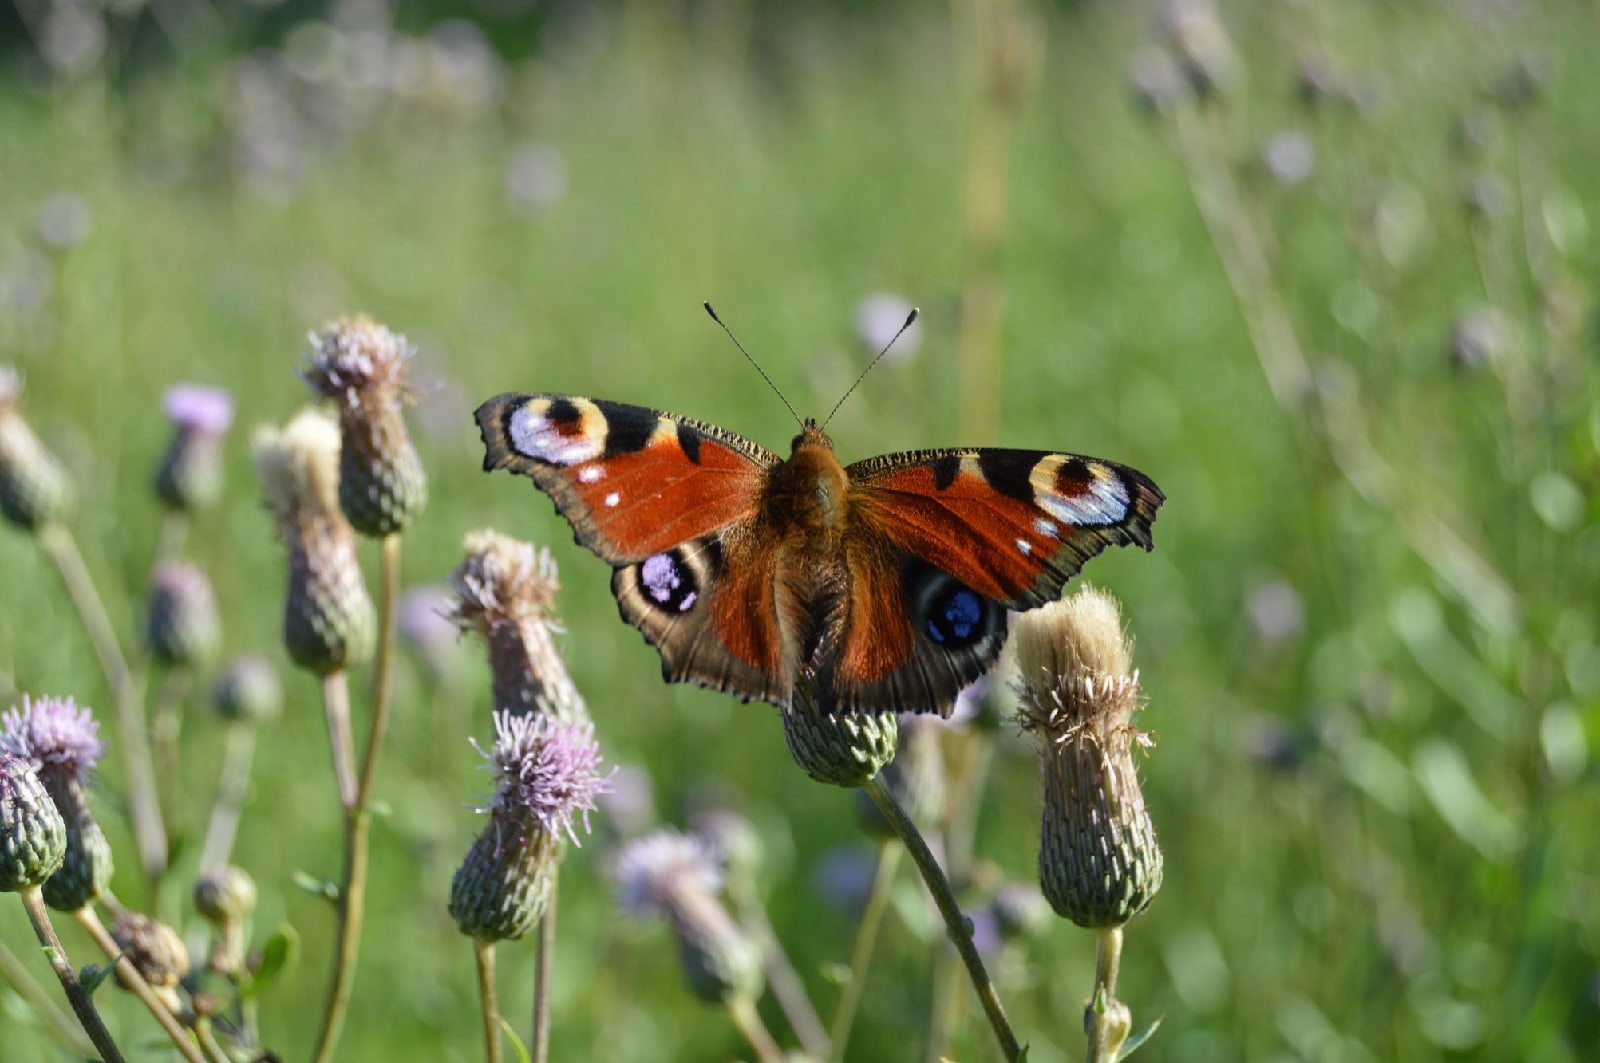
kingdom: Animalia
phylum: Arthropoda
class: Insecta
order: Lepidoptera
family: Nymphalidae
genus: Aglais
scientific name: Aglais io
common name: Peacock
